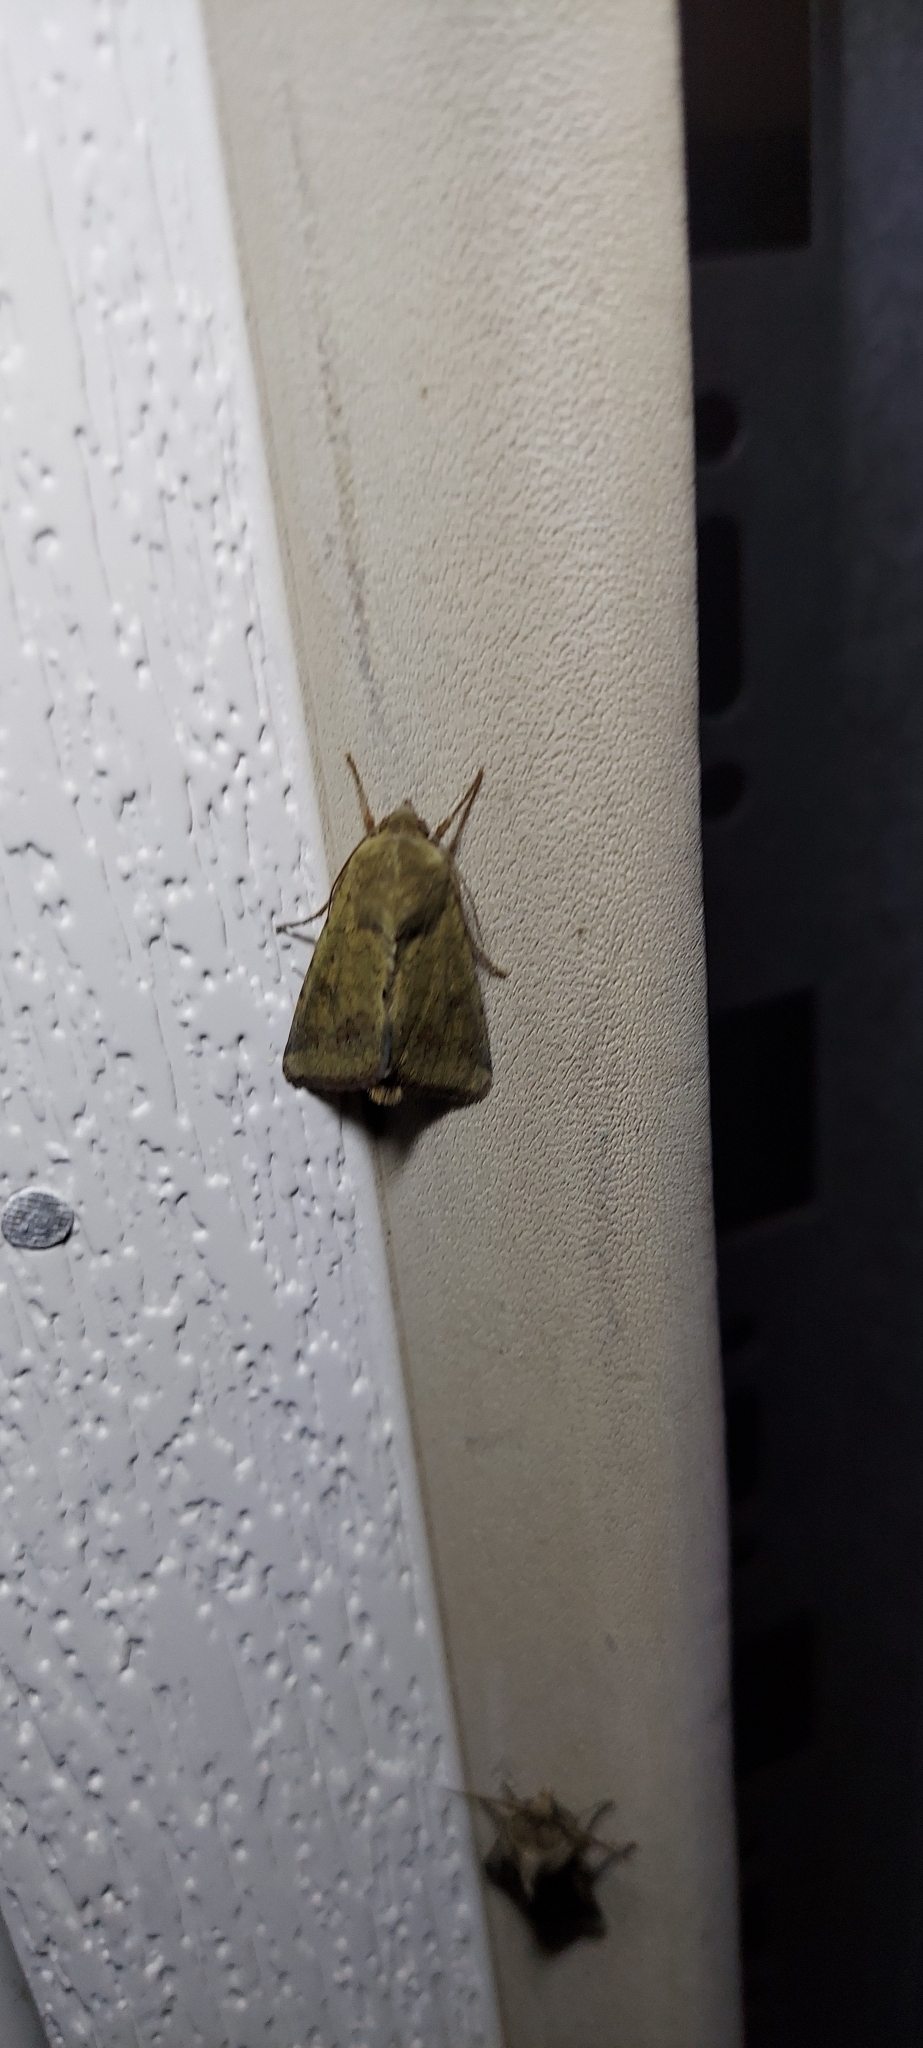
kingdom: Animalia
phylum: Arthropoda
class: Insecta
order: Lepidoptera
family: Noctuidae
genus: Helicoverpa
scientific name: Helicoverpa zea
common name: Bollworm
